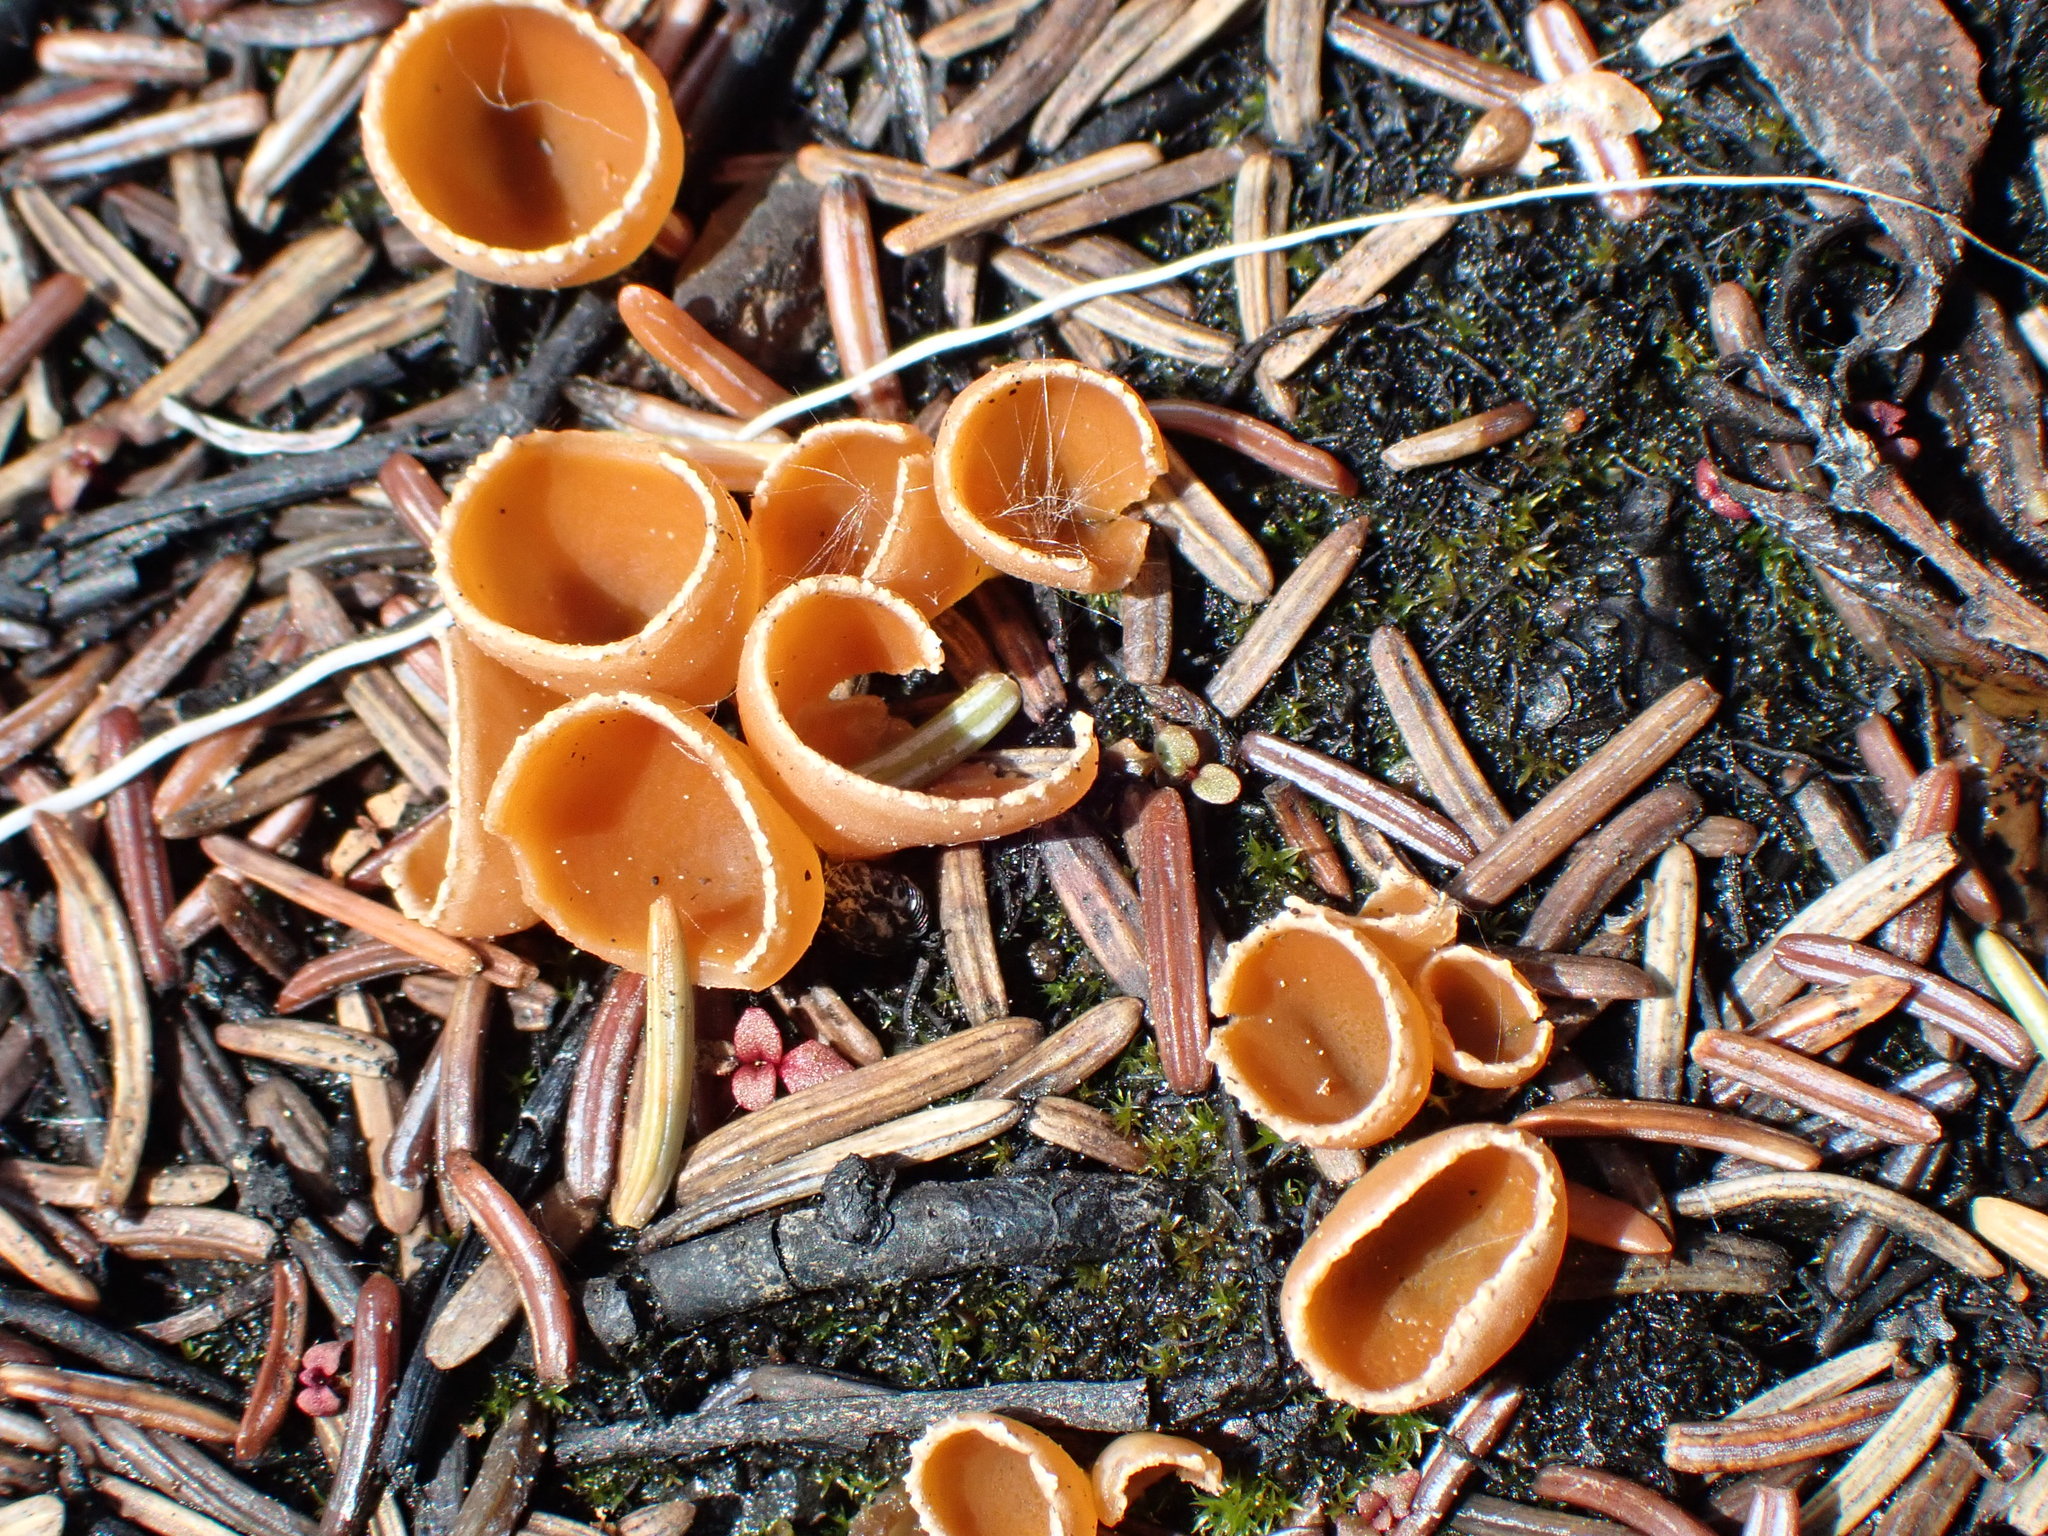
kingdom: Fungi
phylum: Ascomycota
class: Pezizomycetes
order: Pezizales
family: Pyronemataceae
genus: Geopyxis
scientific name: Geopyxis carbonaria
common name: Stalked bonfire cup
